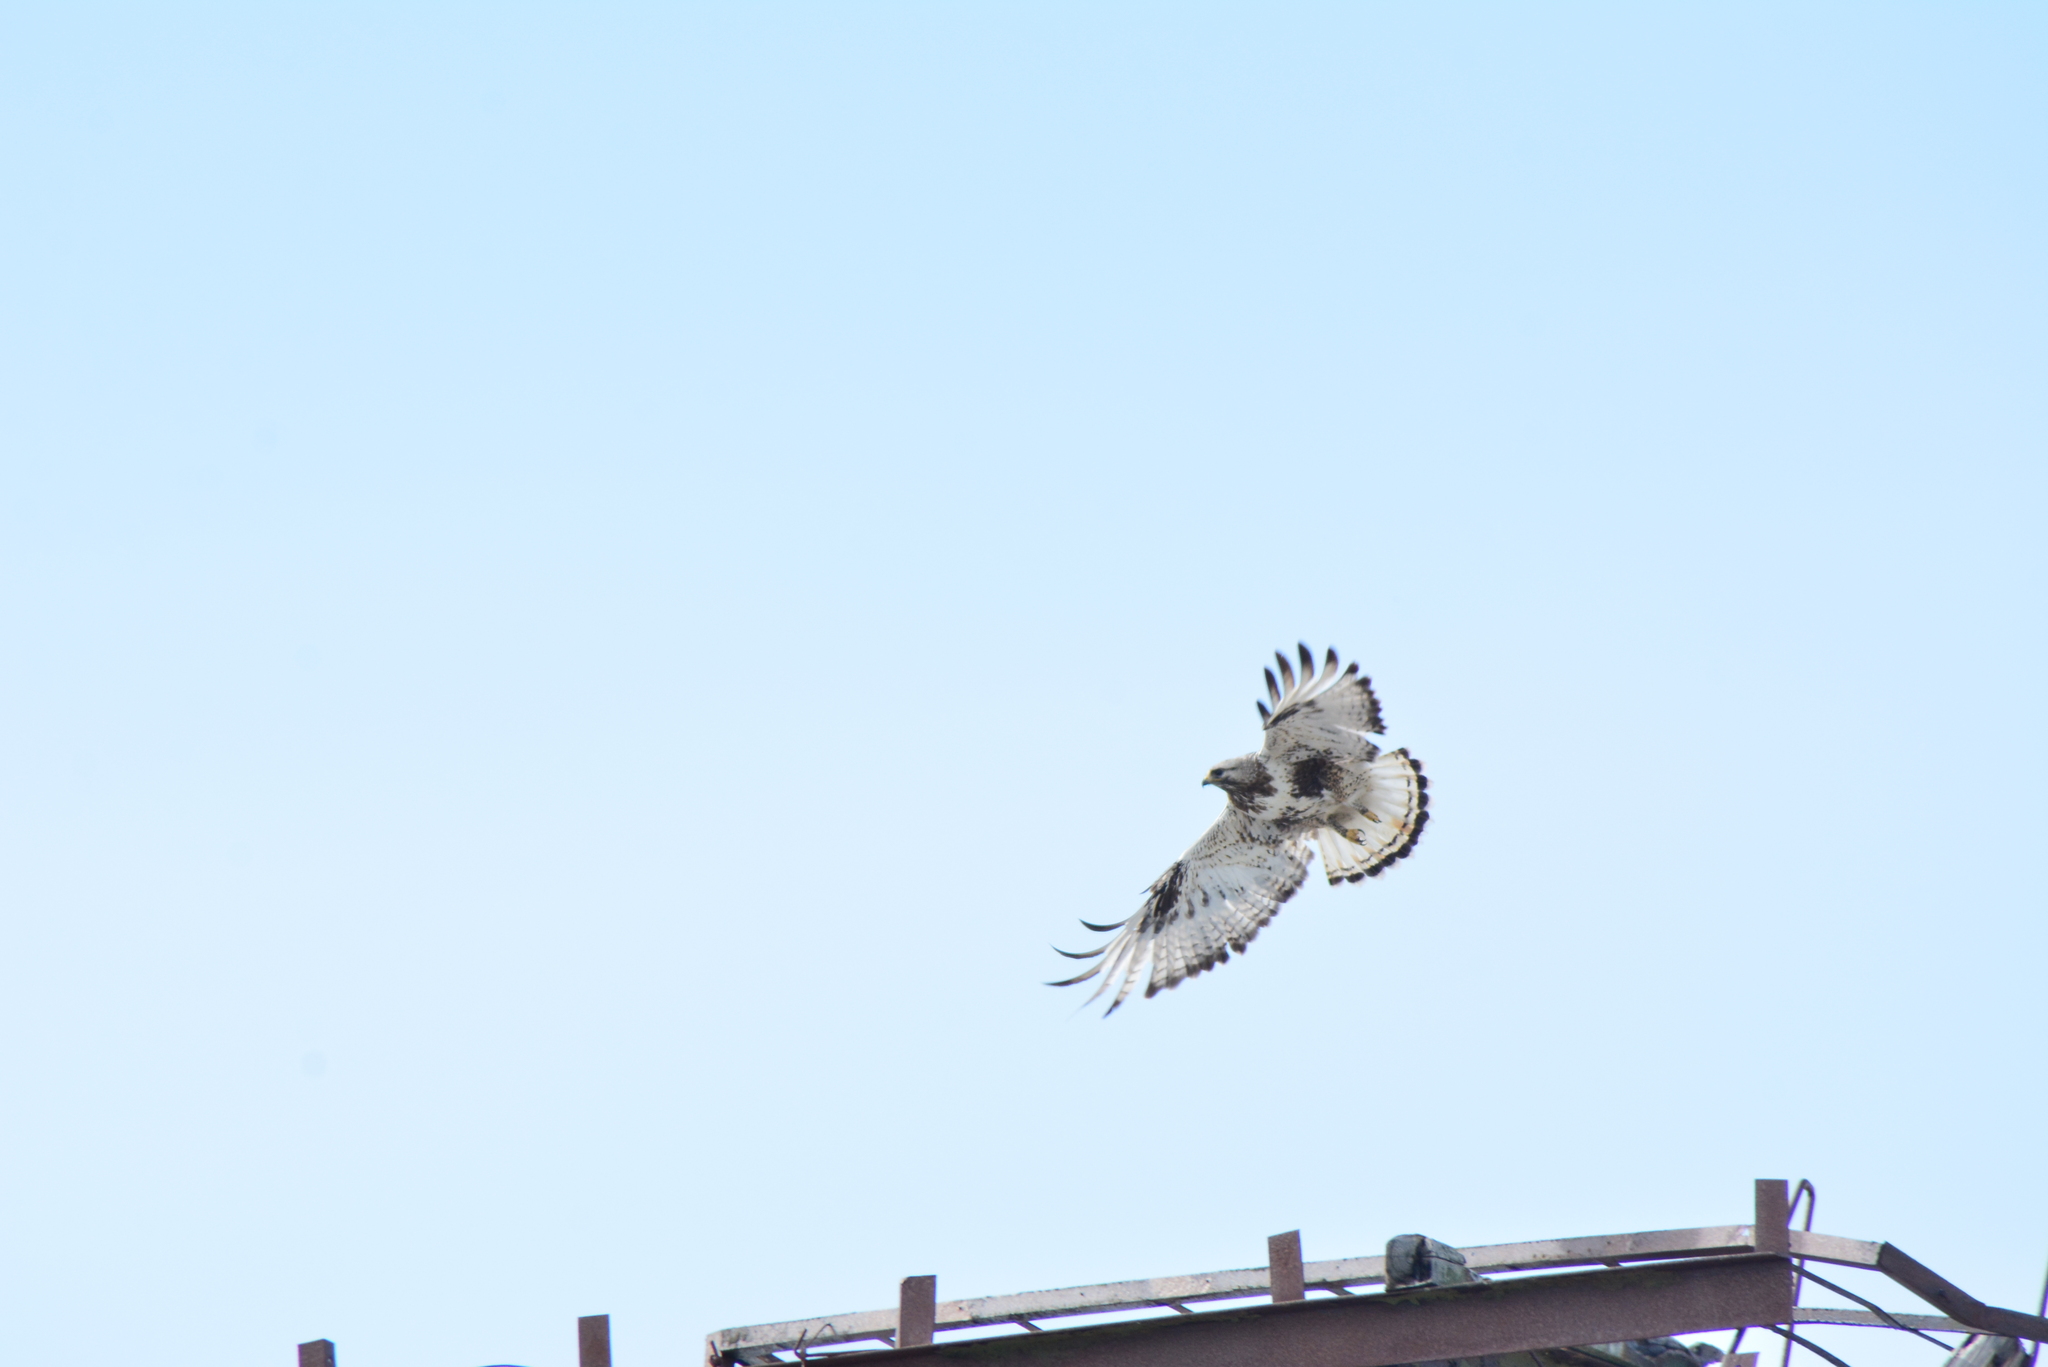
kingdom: Animalia
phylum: Chordata
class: Aves
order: Accipitriformes
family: Accipitridae
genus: Buteo
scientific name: Buteo lagopus
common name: Rough-legged buzzard
